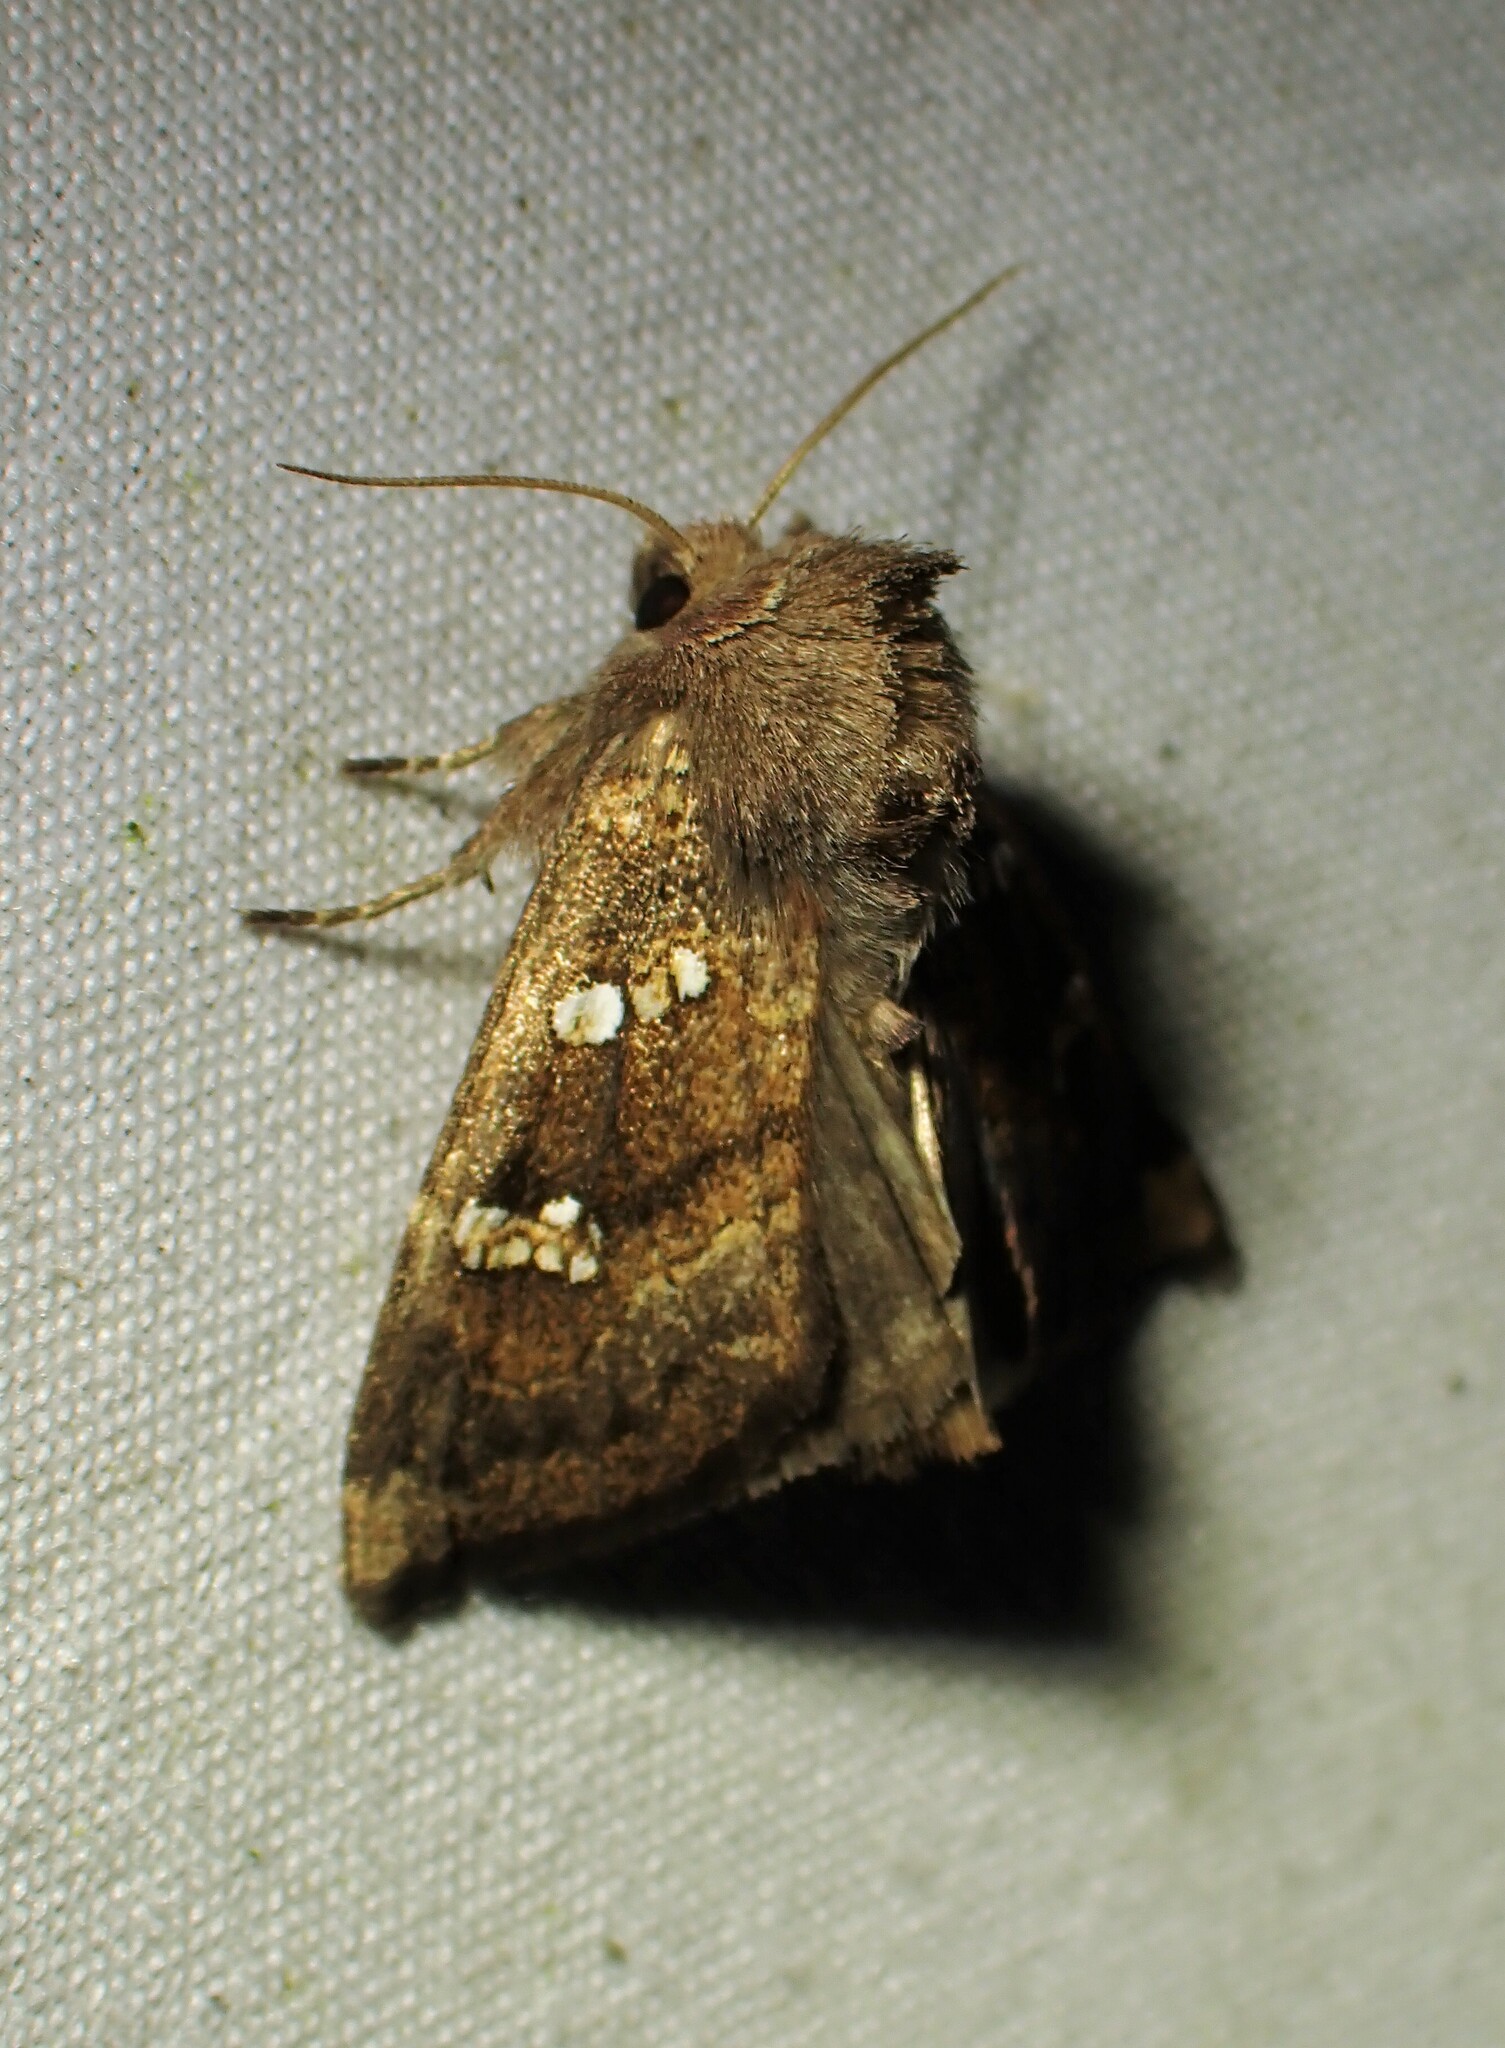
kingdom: Animalia
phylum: Arthropoda
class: Insecta
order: Lepidoptera
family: Noctuidae
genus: Papaipema
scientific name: Papaipema unimoda
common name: Meadow rue borer moth
